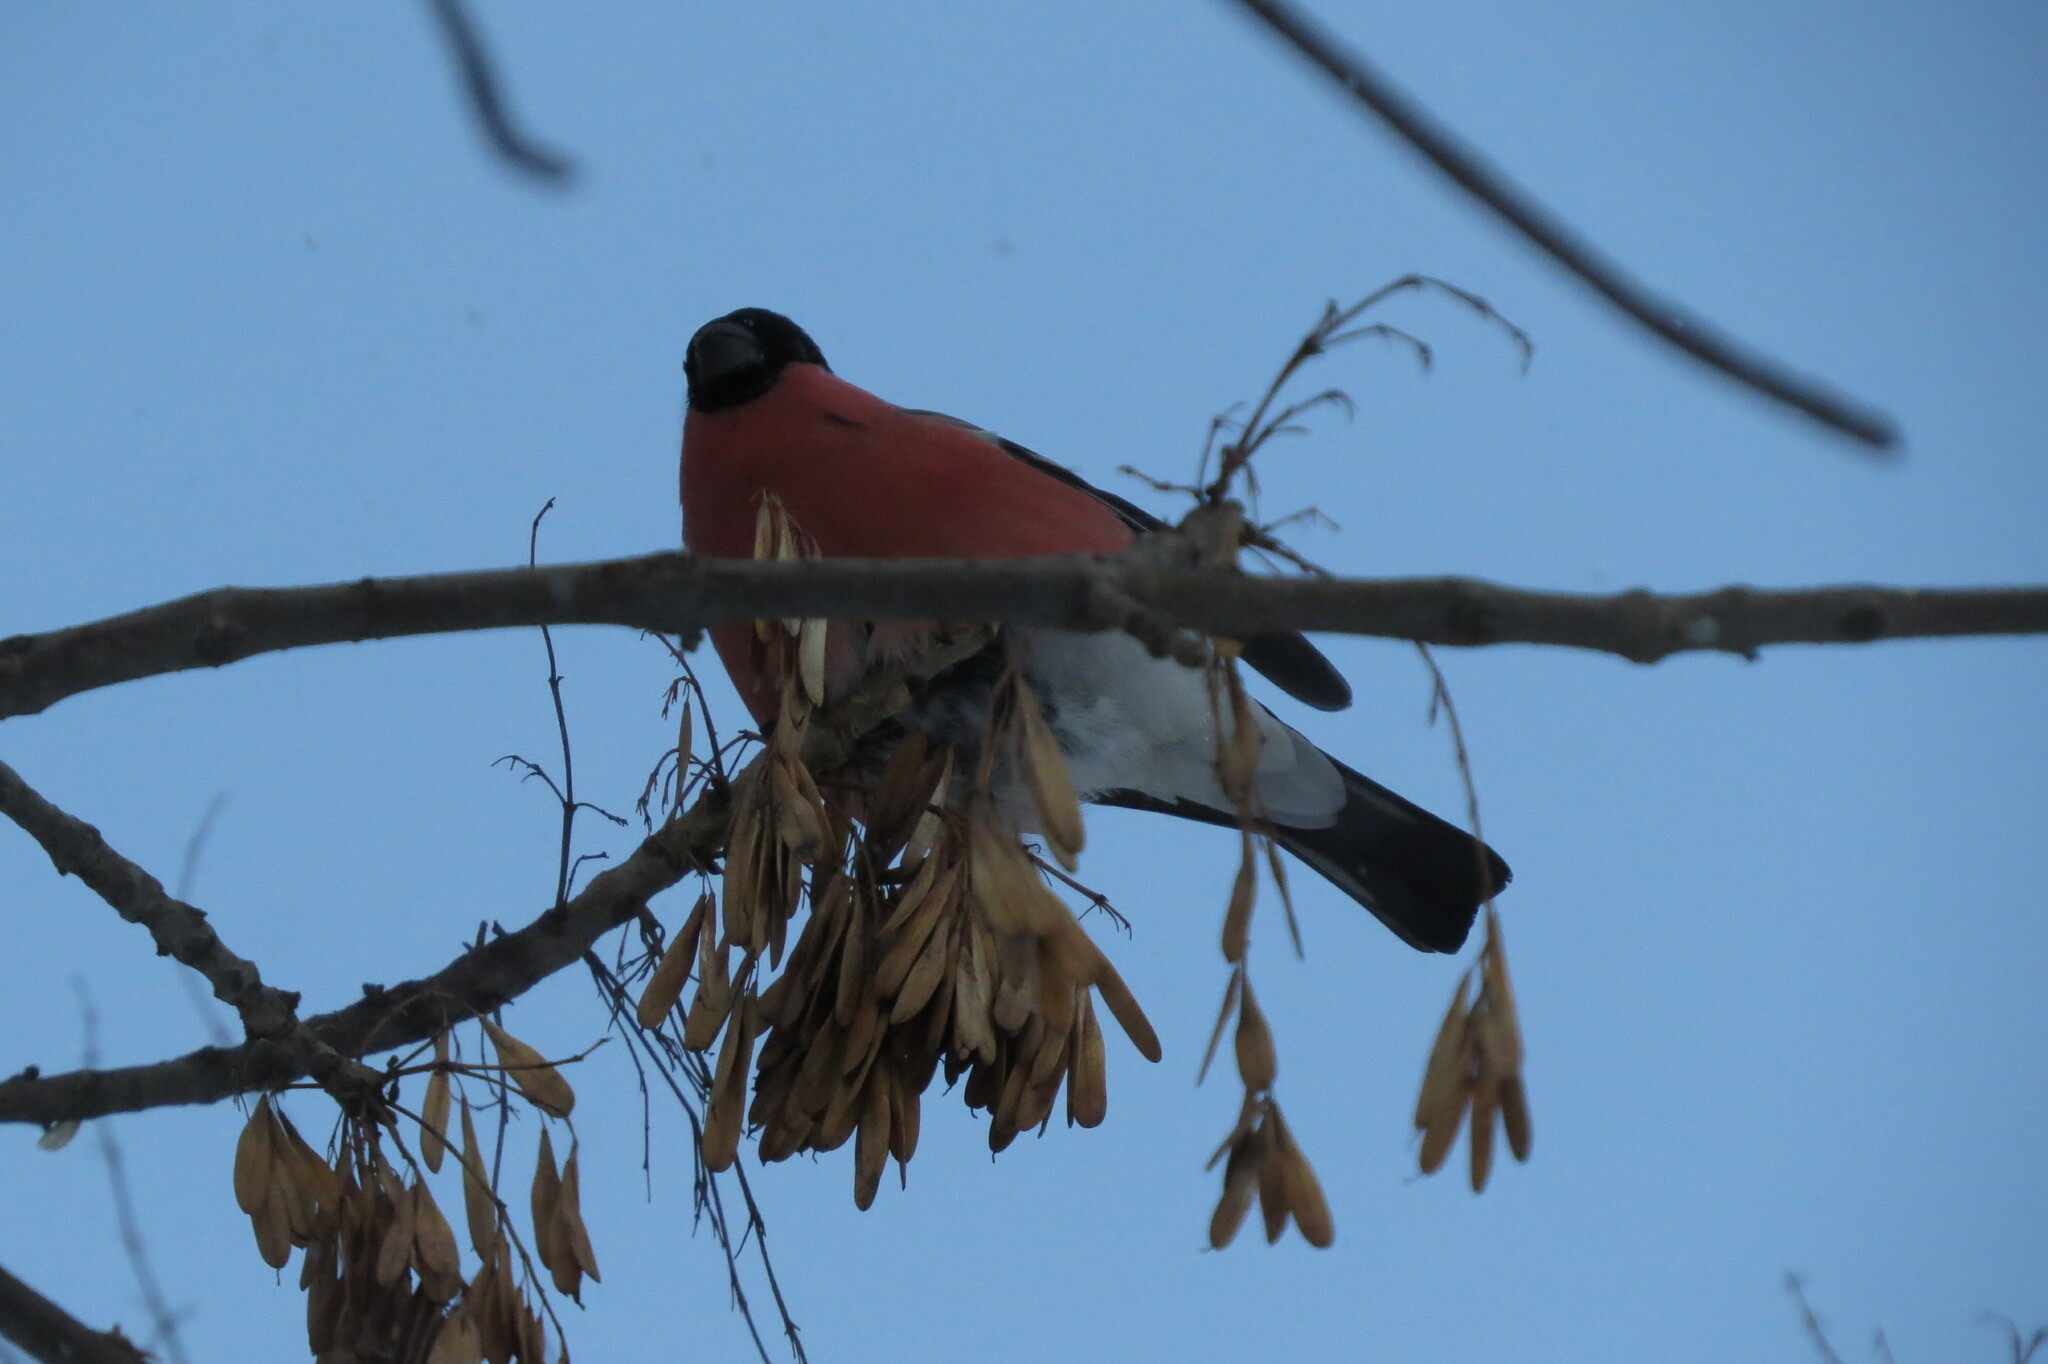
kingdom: Animalia
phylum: Chordata
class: Aves
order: Passeriformes
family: Fringillidae
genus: Pyrrhula
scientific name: Pyrrhula pyrrhula
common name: Eurasian bullfinch
